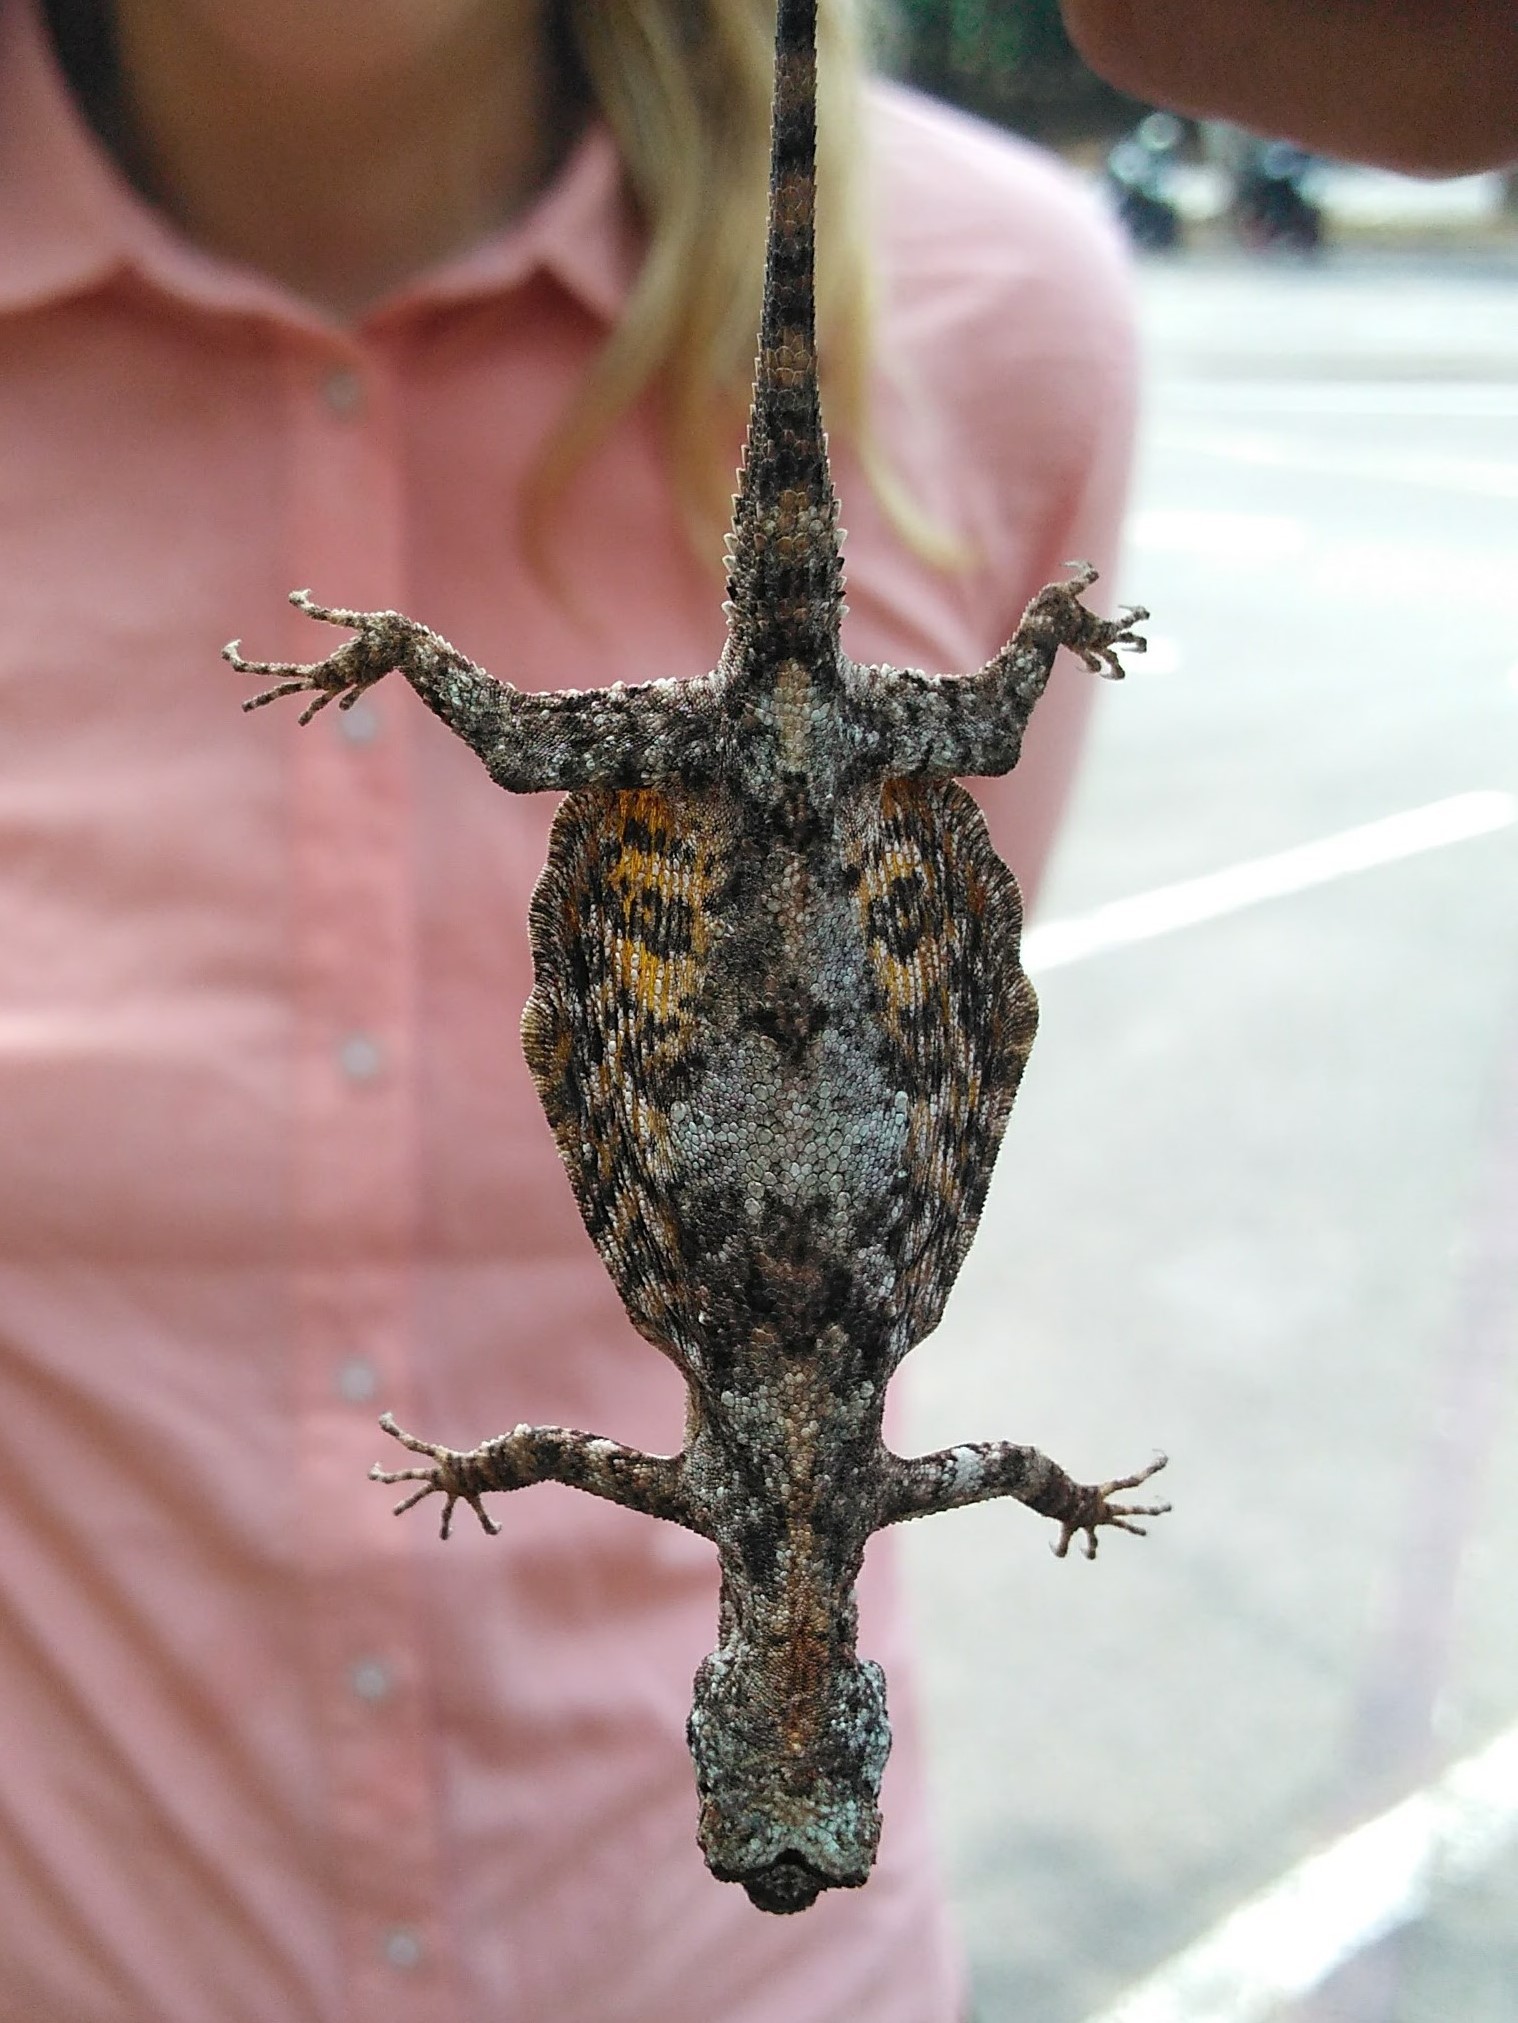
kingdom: Animalia
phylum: Chordata
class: Squamata
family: Agamidae
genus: Draco
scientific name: Draco maculatus
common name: Spotted flying dragon
